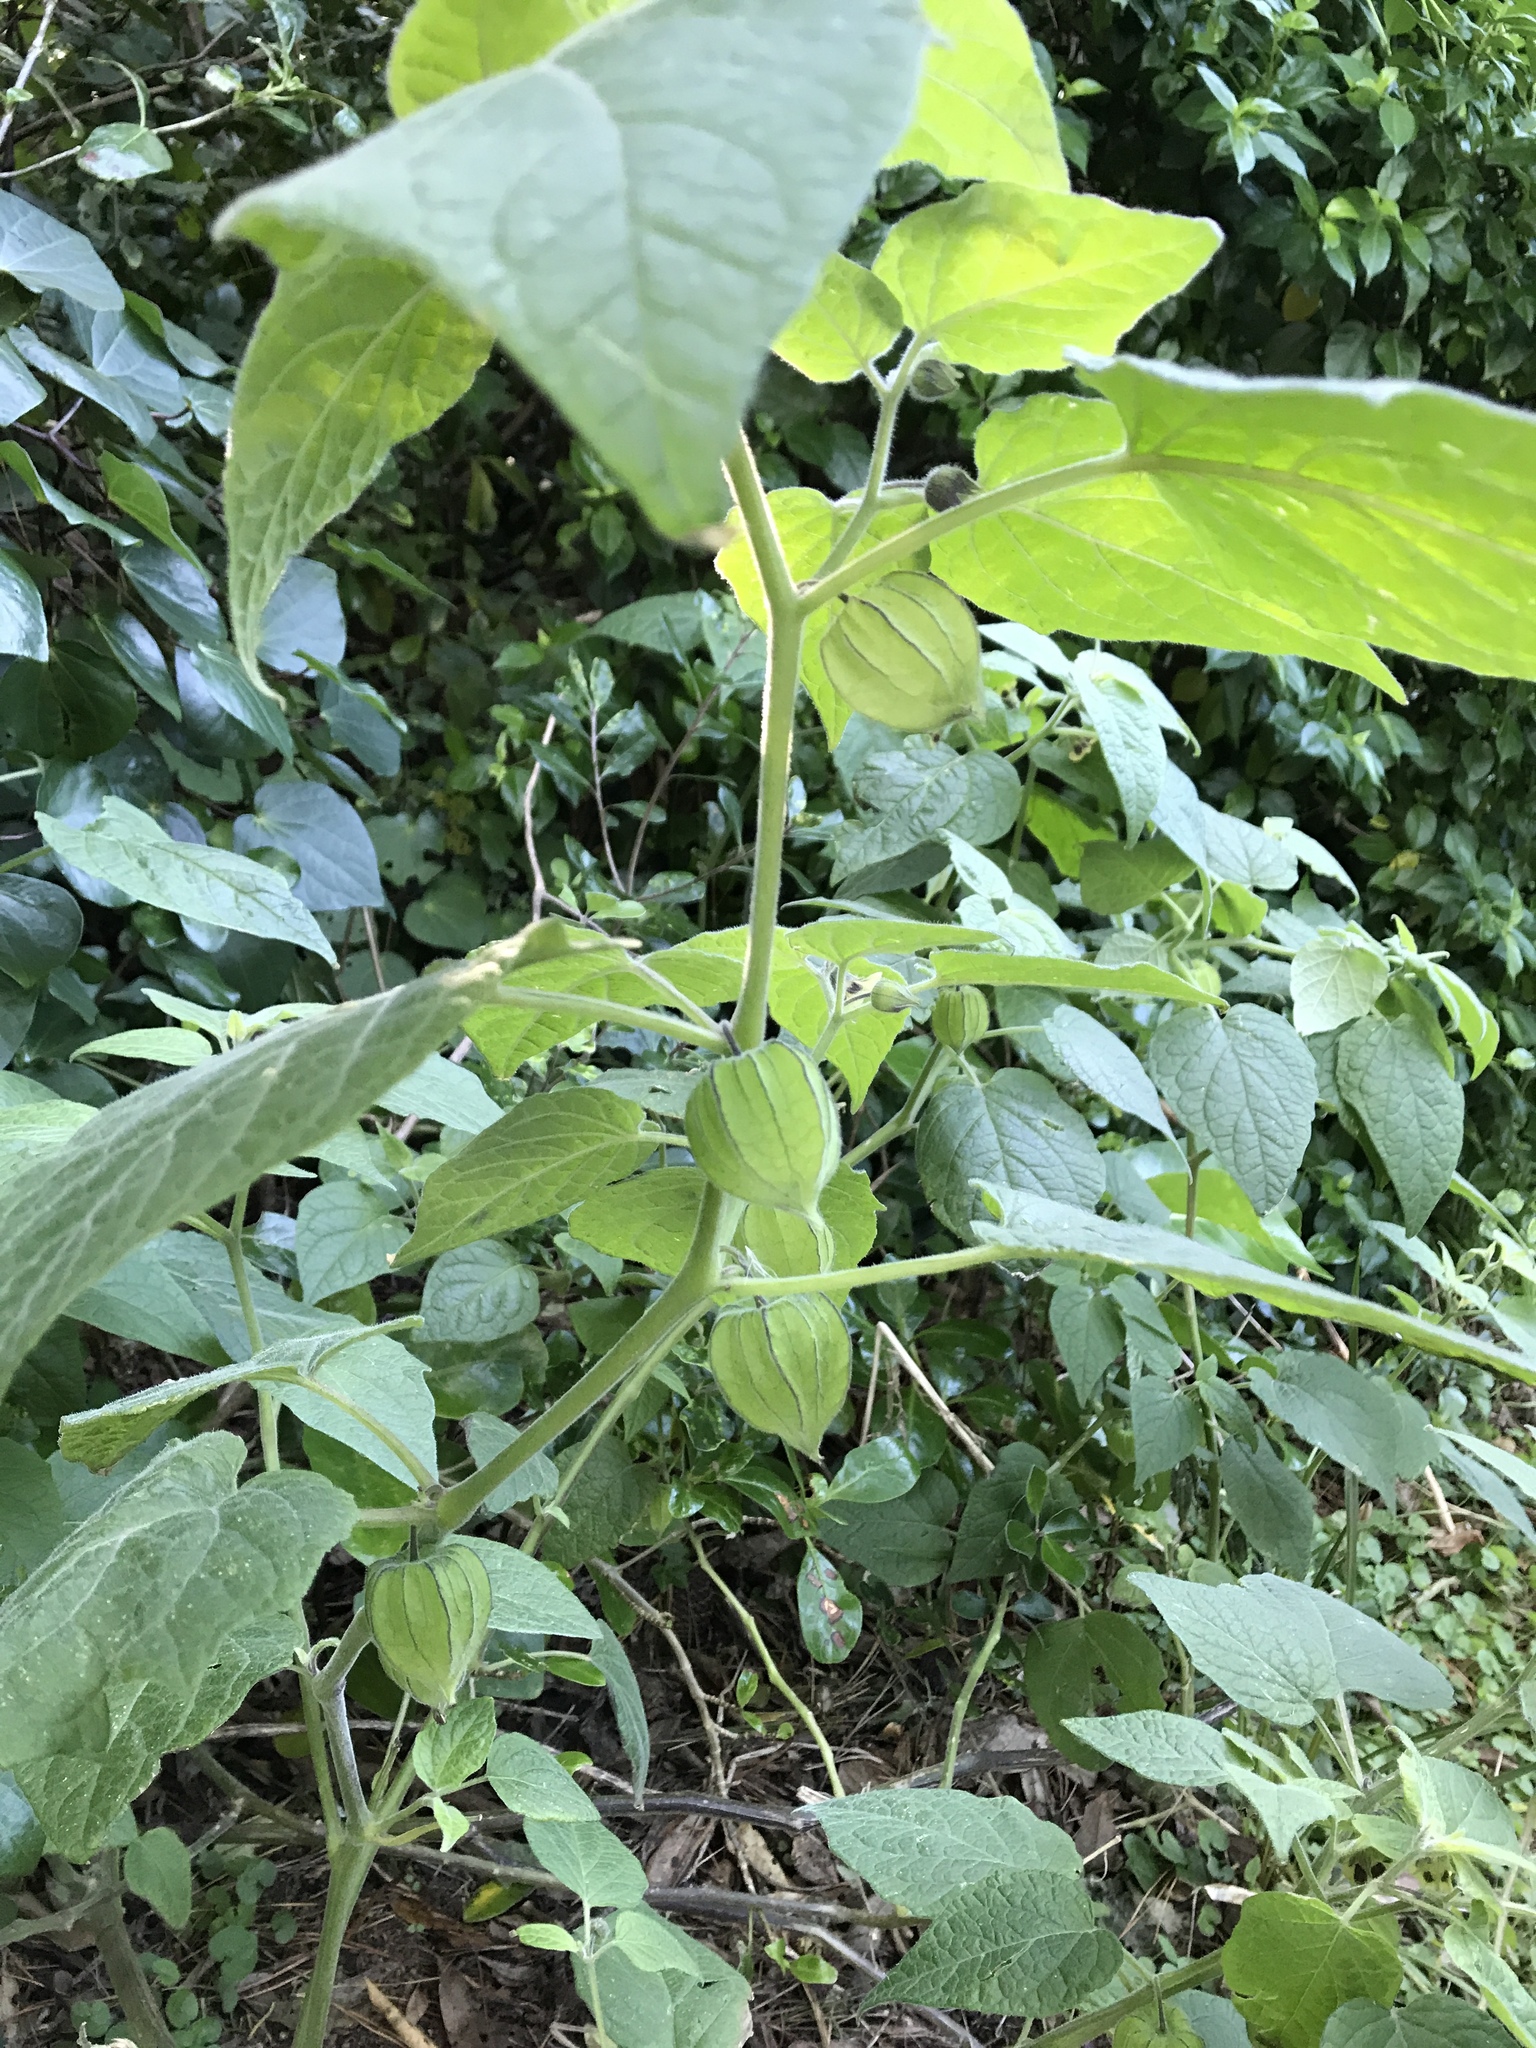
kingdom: Plantae
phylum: Tracheophyta
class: Magnoliopsida
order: Solanales
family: Solanaceae
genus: Physalis
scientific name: Physalis peruviana
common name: Cape-gooseberry
